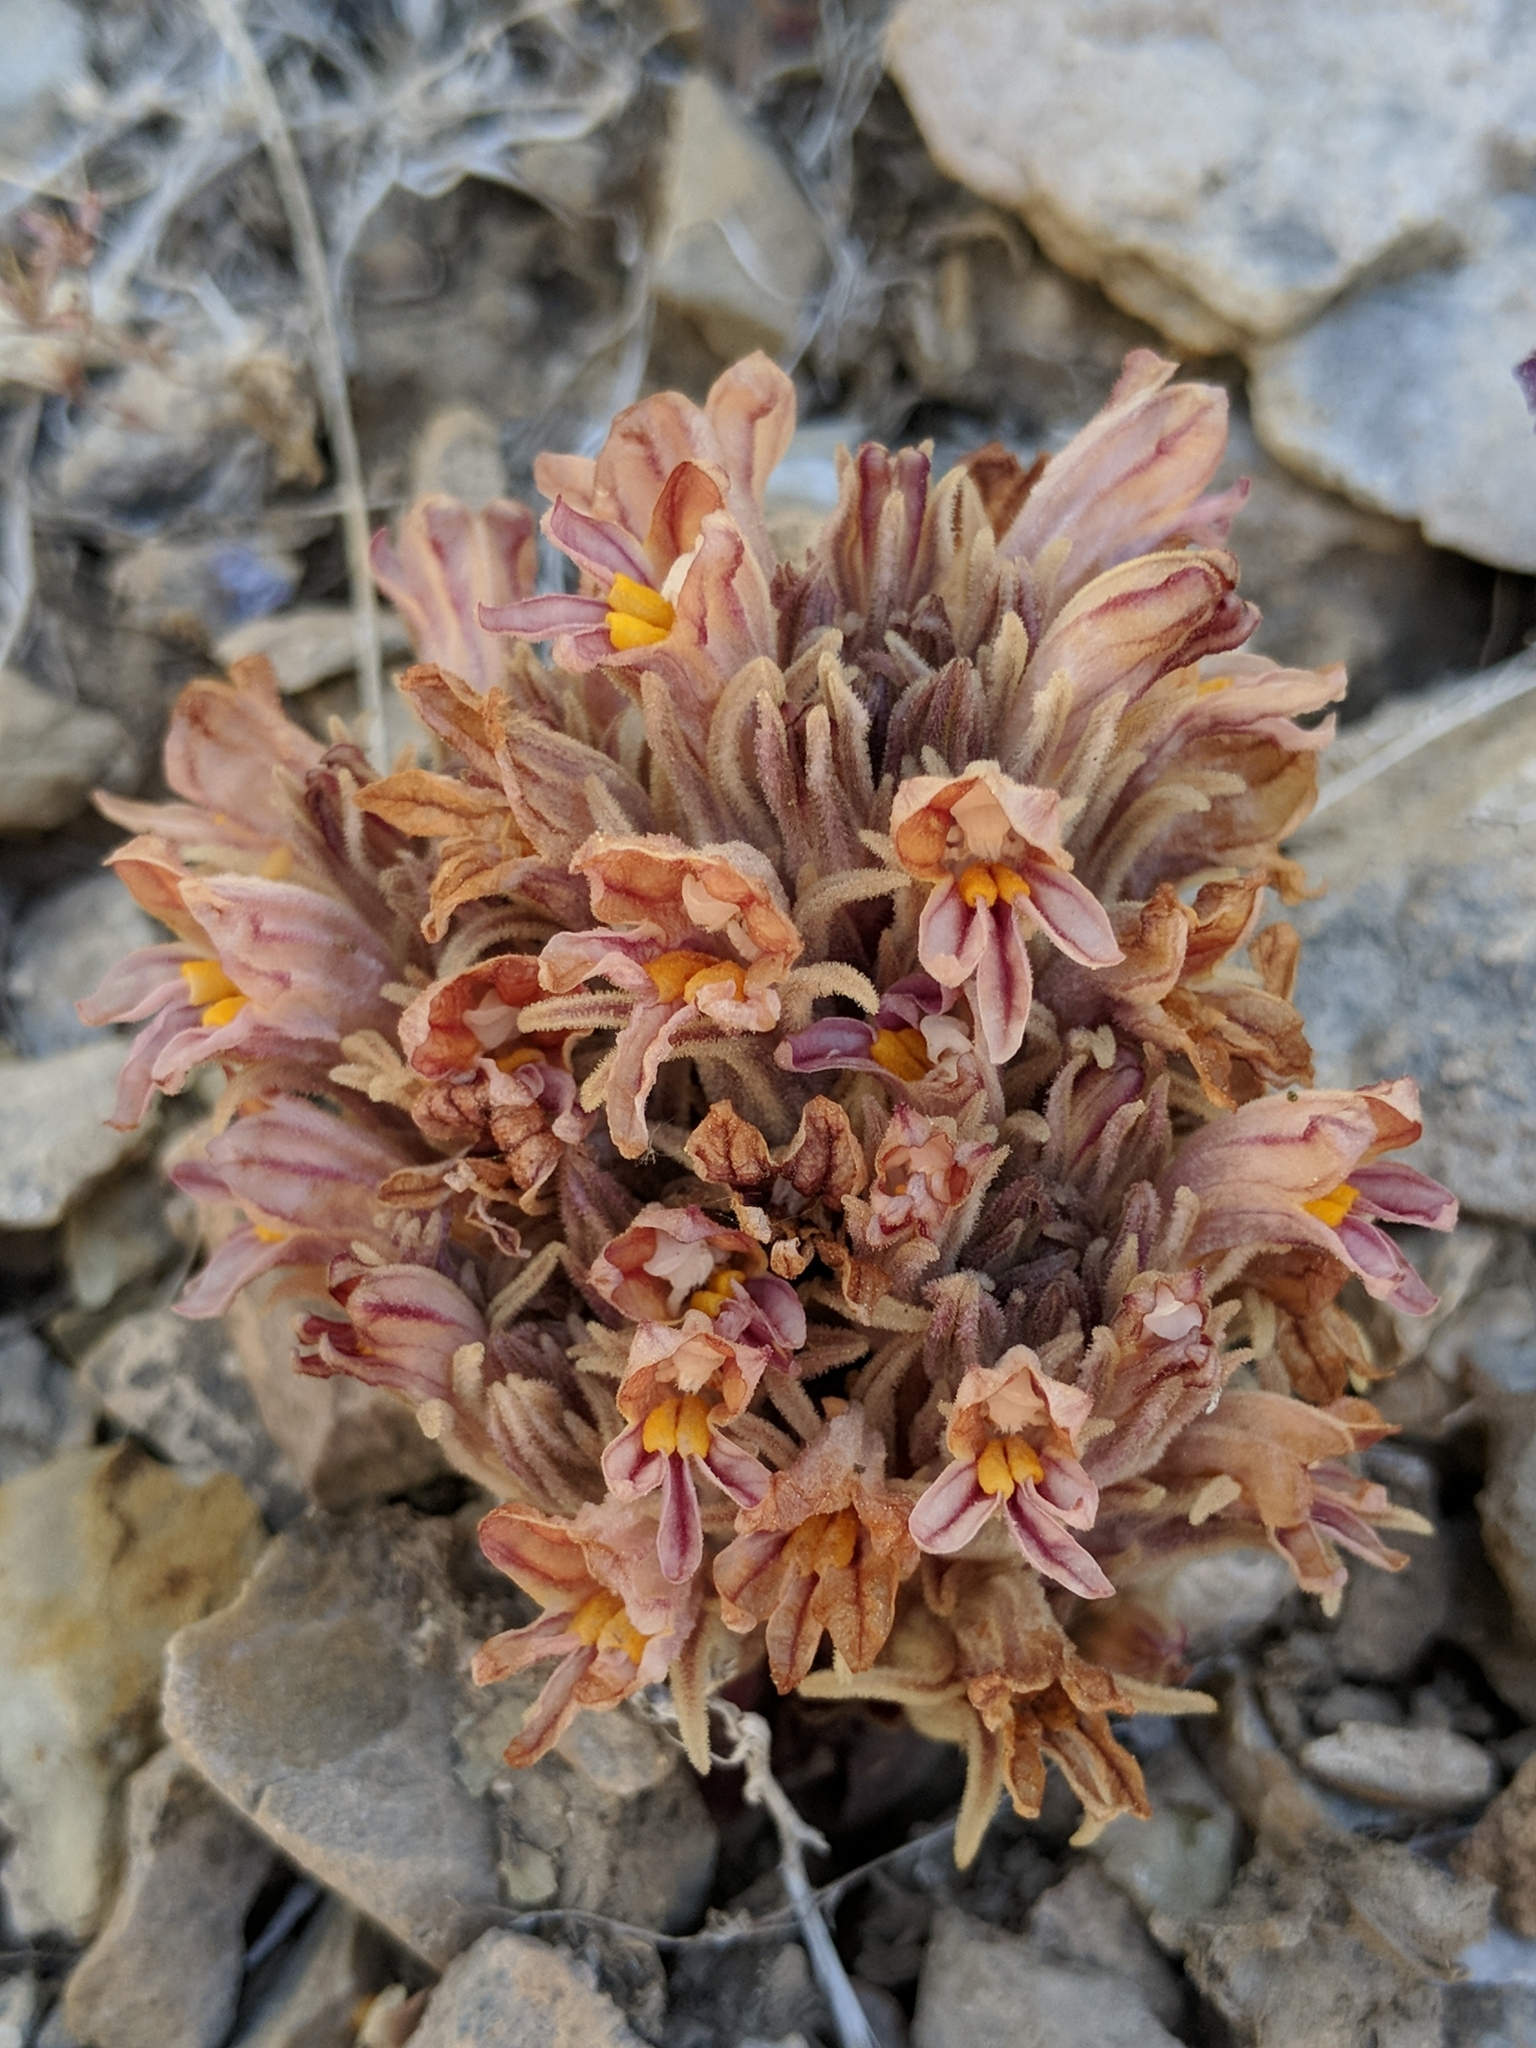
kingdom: Plantae
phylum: Tracheophyta
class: Magnoliopsida
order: Lamiales
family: Orobanchaceae
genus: Aphyllon
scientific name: Aphyllon corymbosum
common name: Flat-top broomrape
